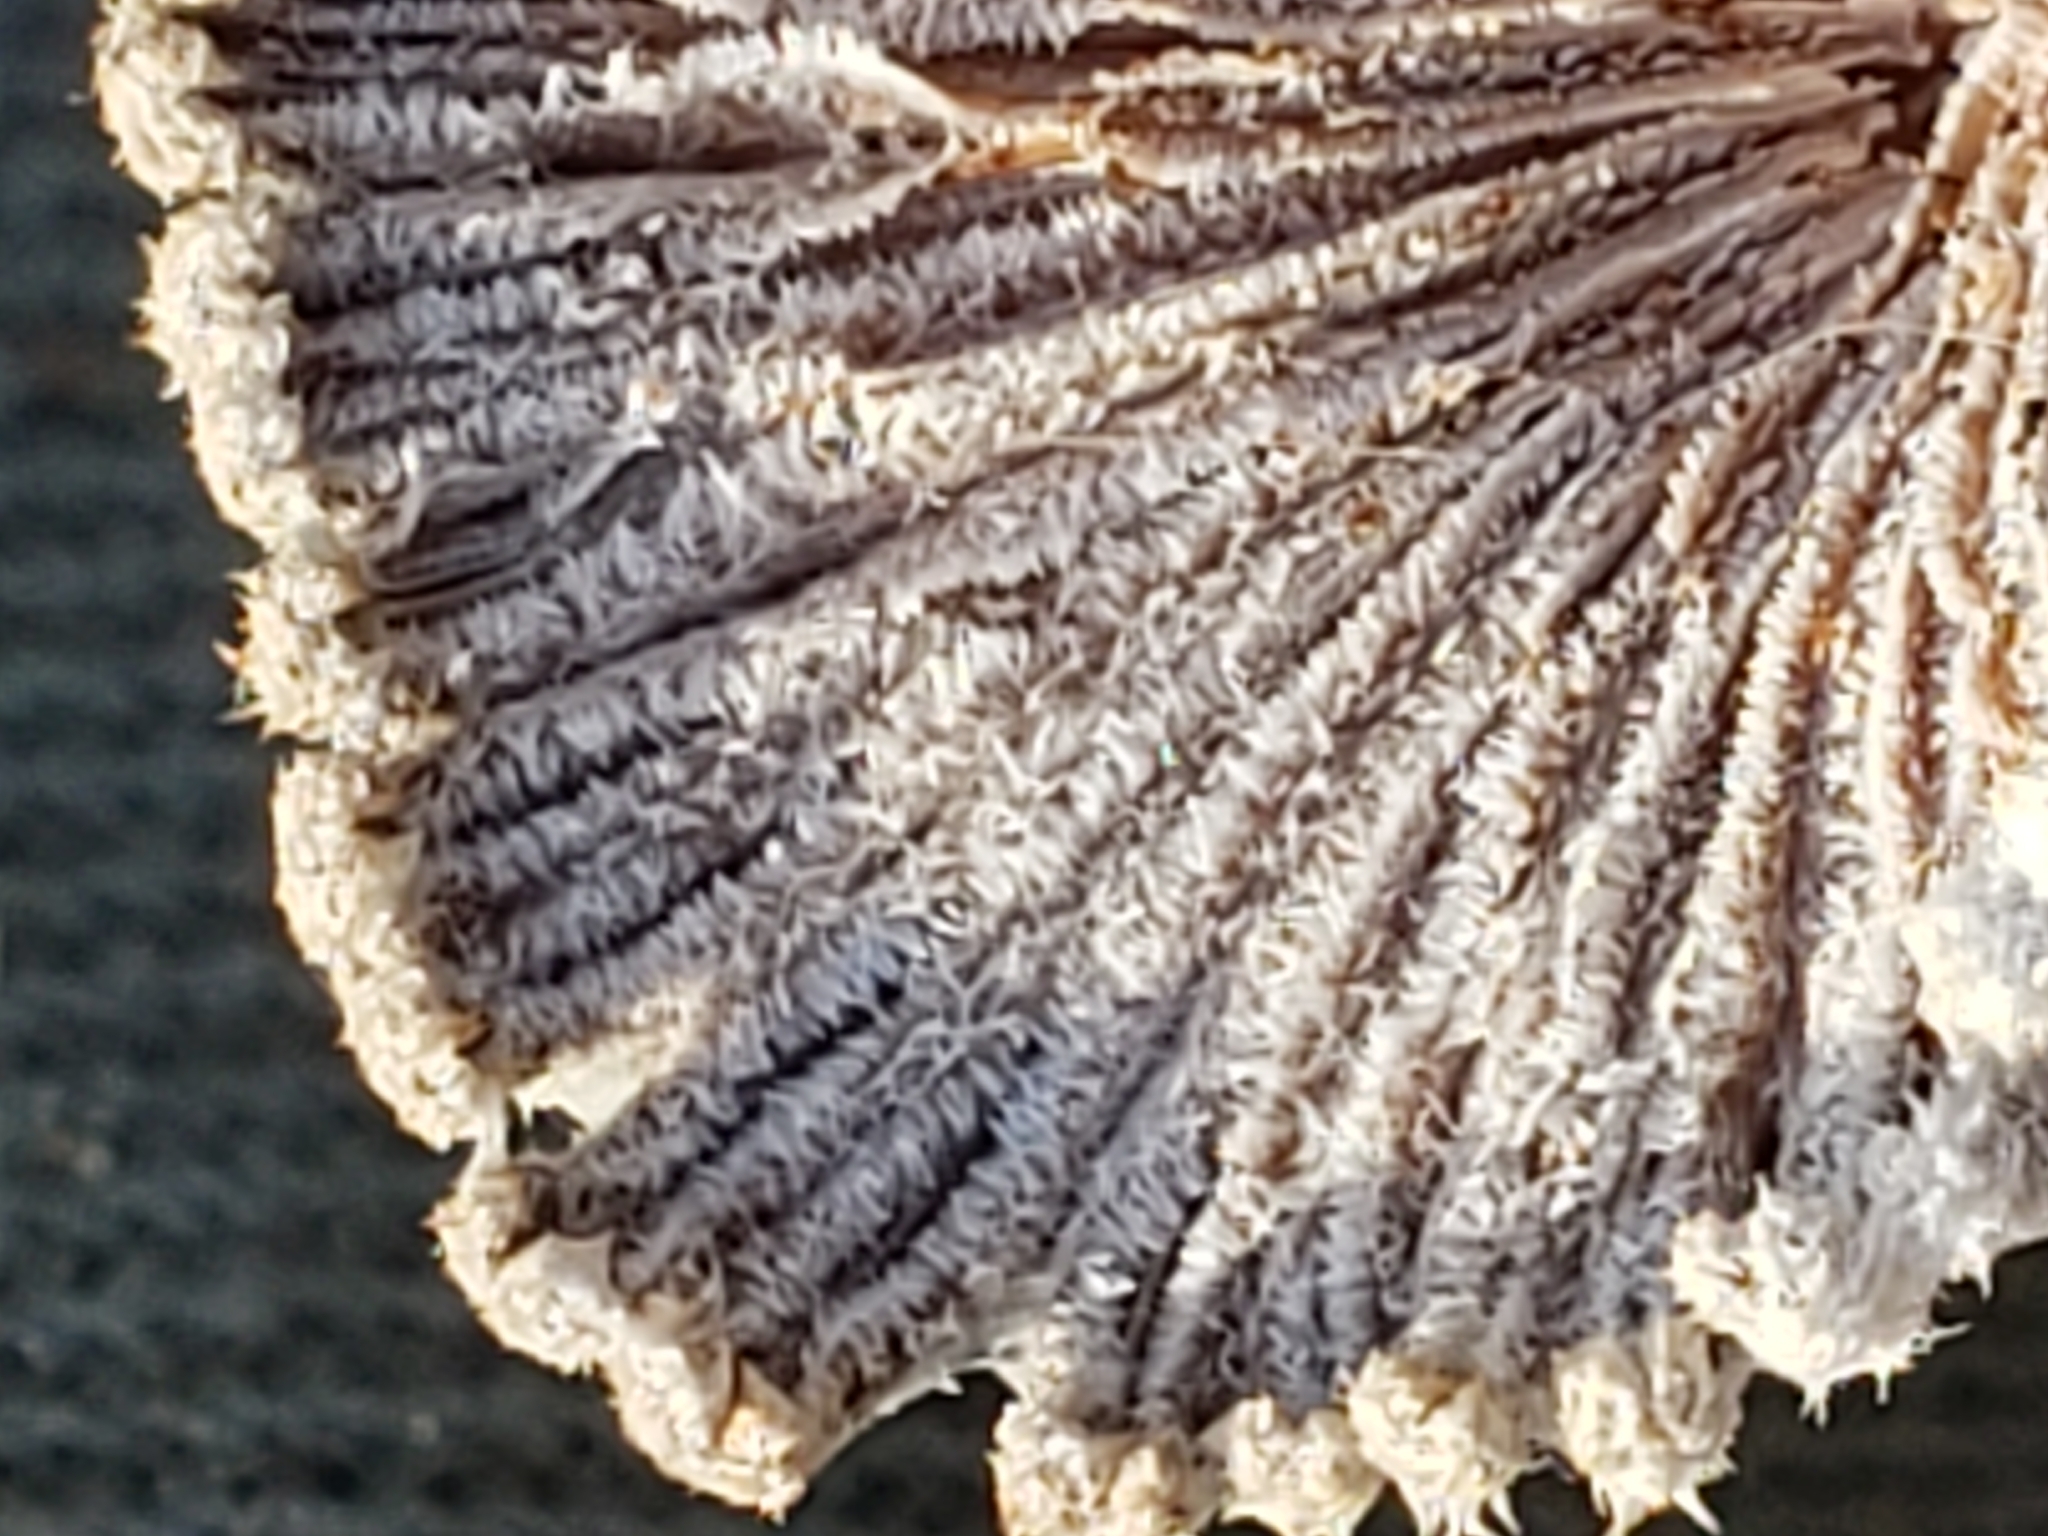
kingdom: Fungi
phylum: Basidiomycota
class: Agaricomycetes
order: Agaricales
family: Schizophyllaceae
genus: Schizophyllum
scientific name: Schizophyllum commune
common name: Common porecrust
